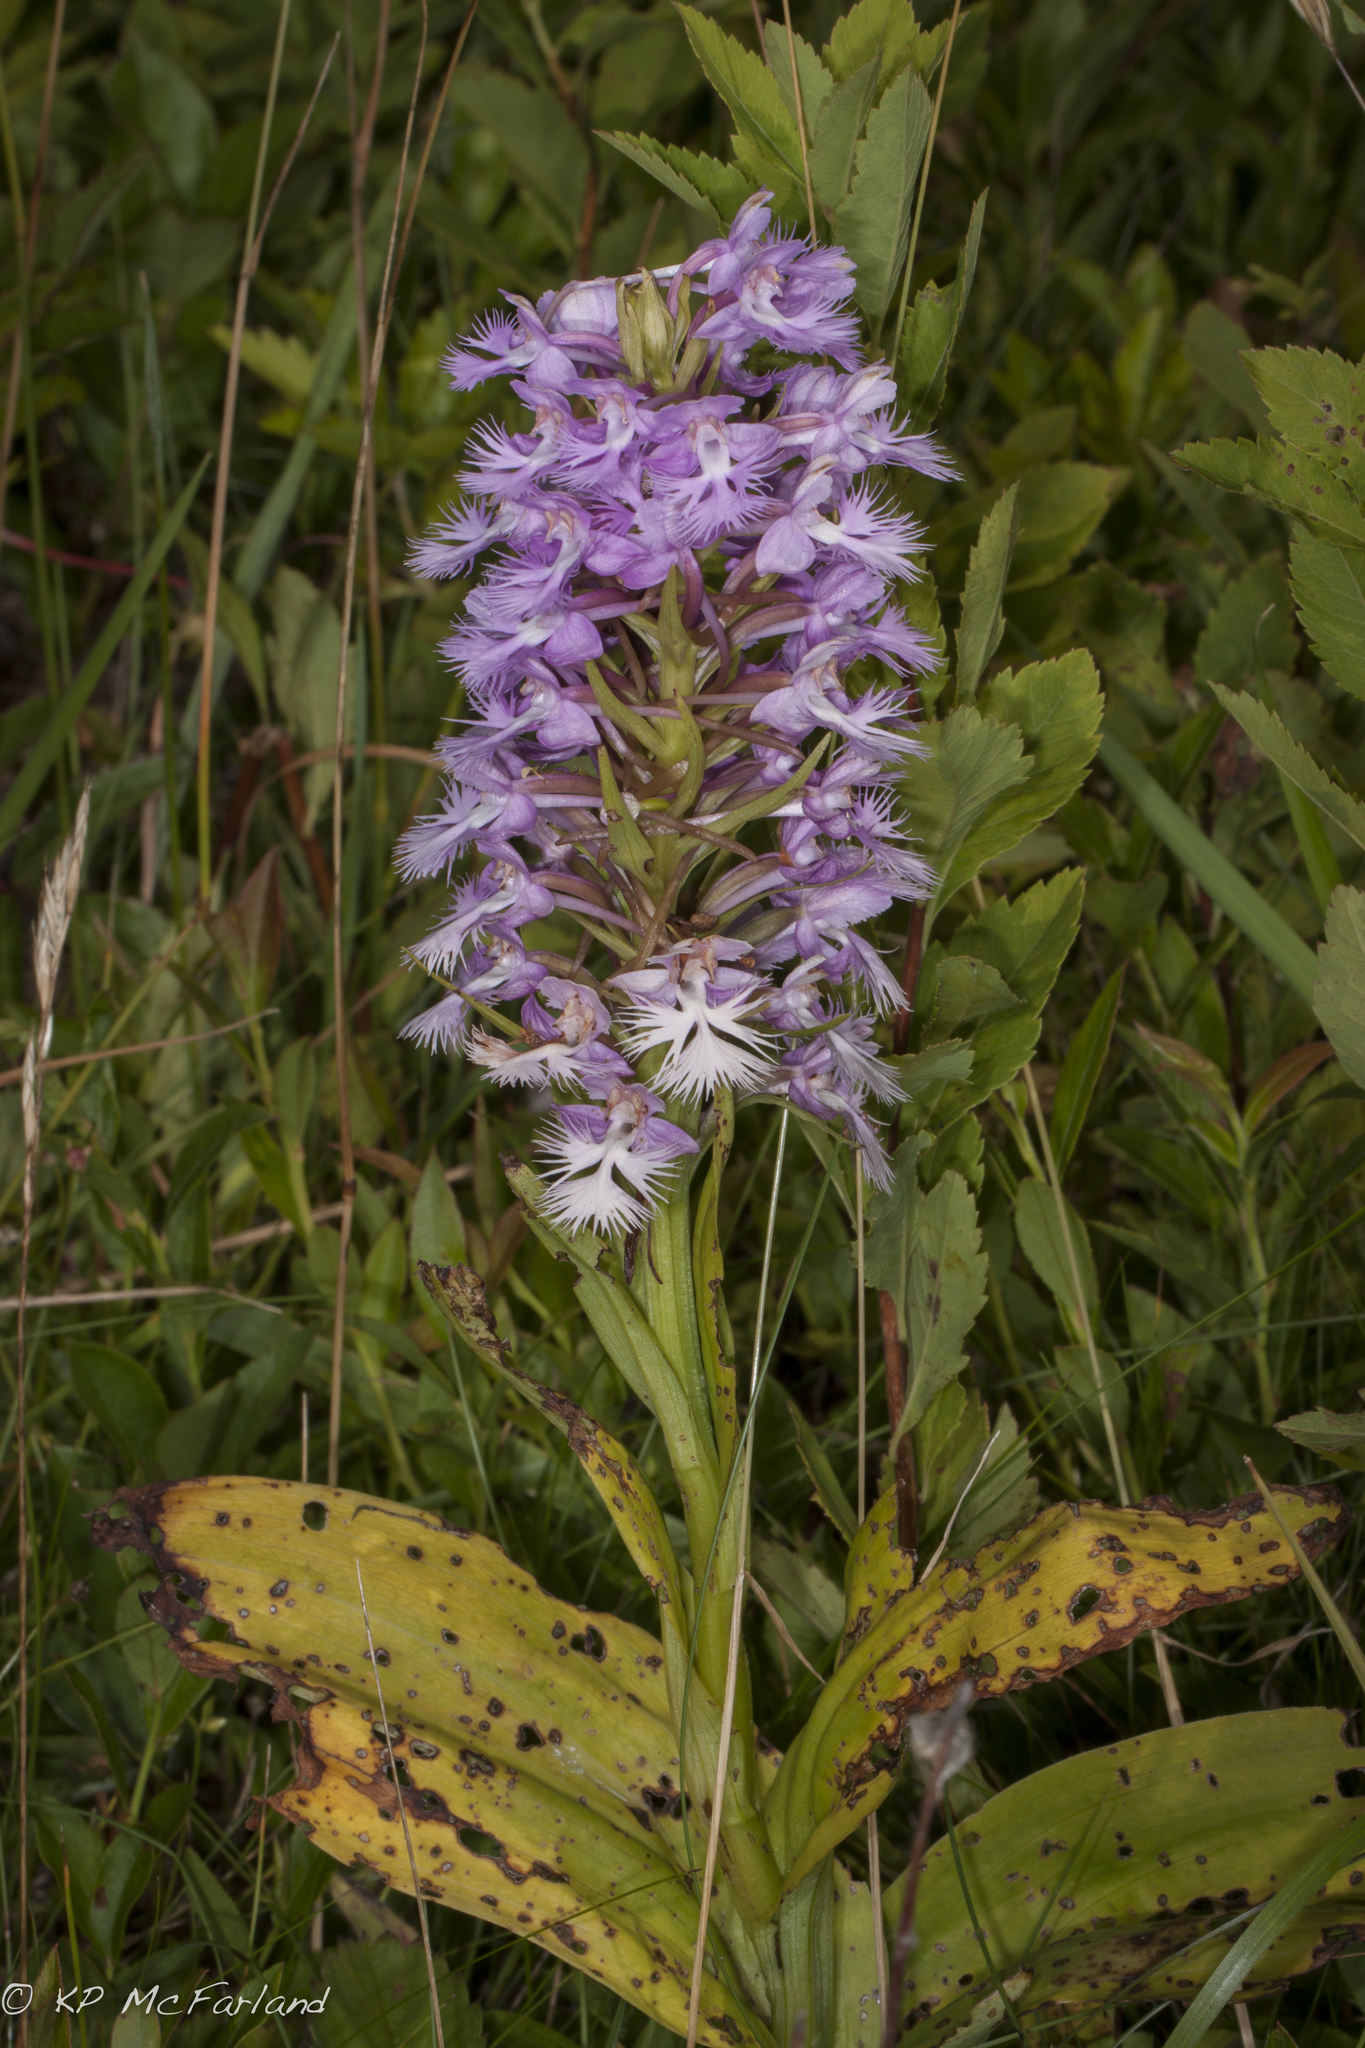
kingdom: Plantae
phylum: Tracheophyta
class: Liliopsida
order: Asparagales
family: Orchidaceae
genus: Platanthera
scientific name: Platanthera grandiflora
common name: Greater purple fringed orchid
